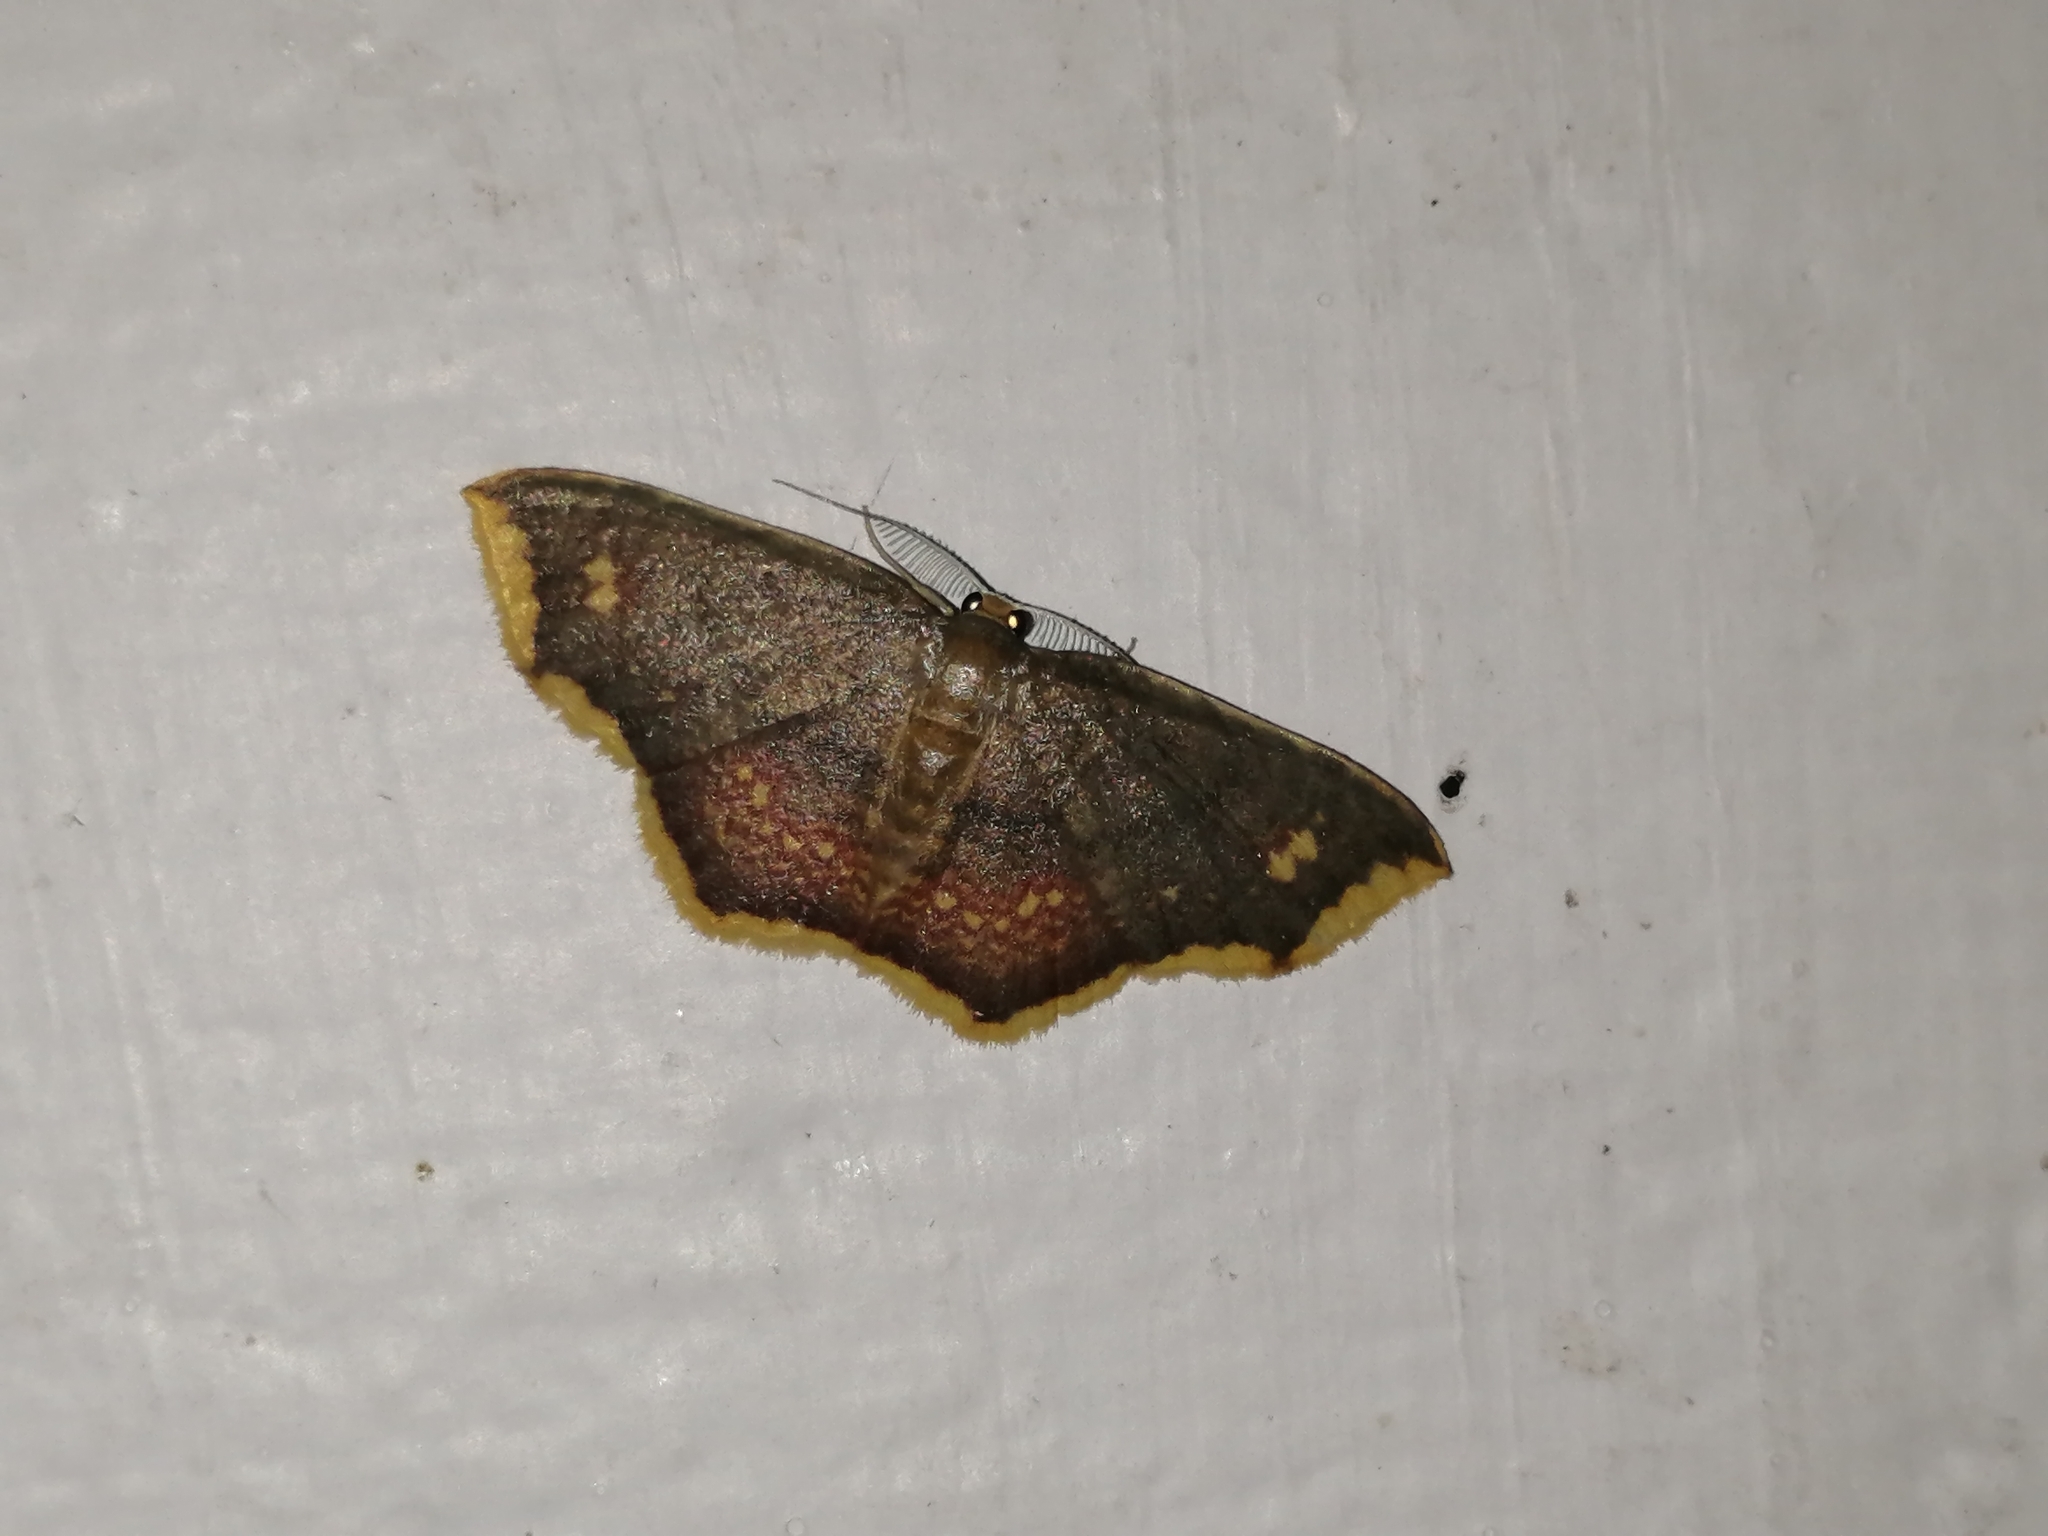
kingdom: Animalia
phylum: Arthropoda
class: Insecta
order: Lepidoptera
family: Geometridae
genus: Eois
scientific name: Eois grataria
